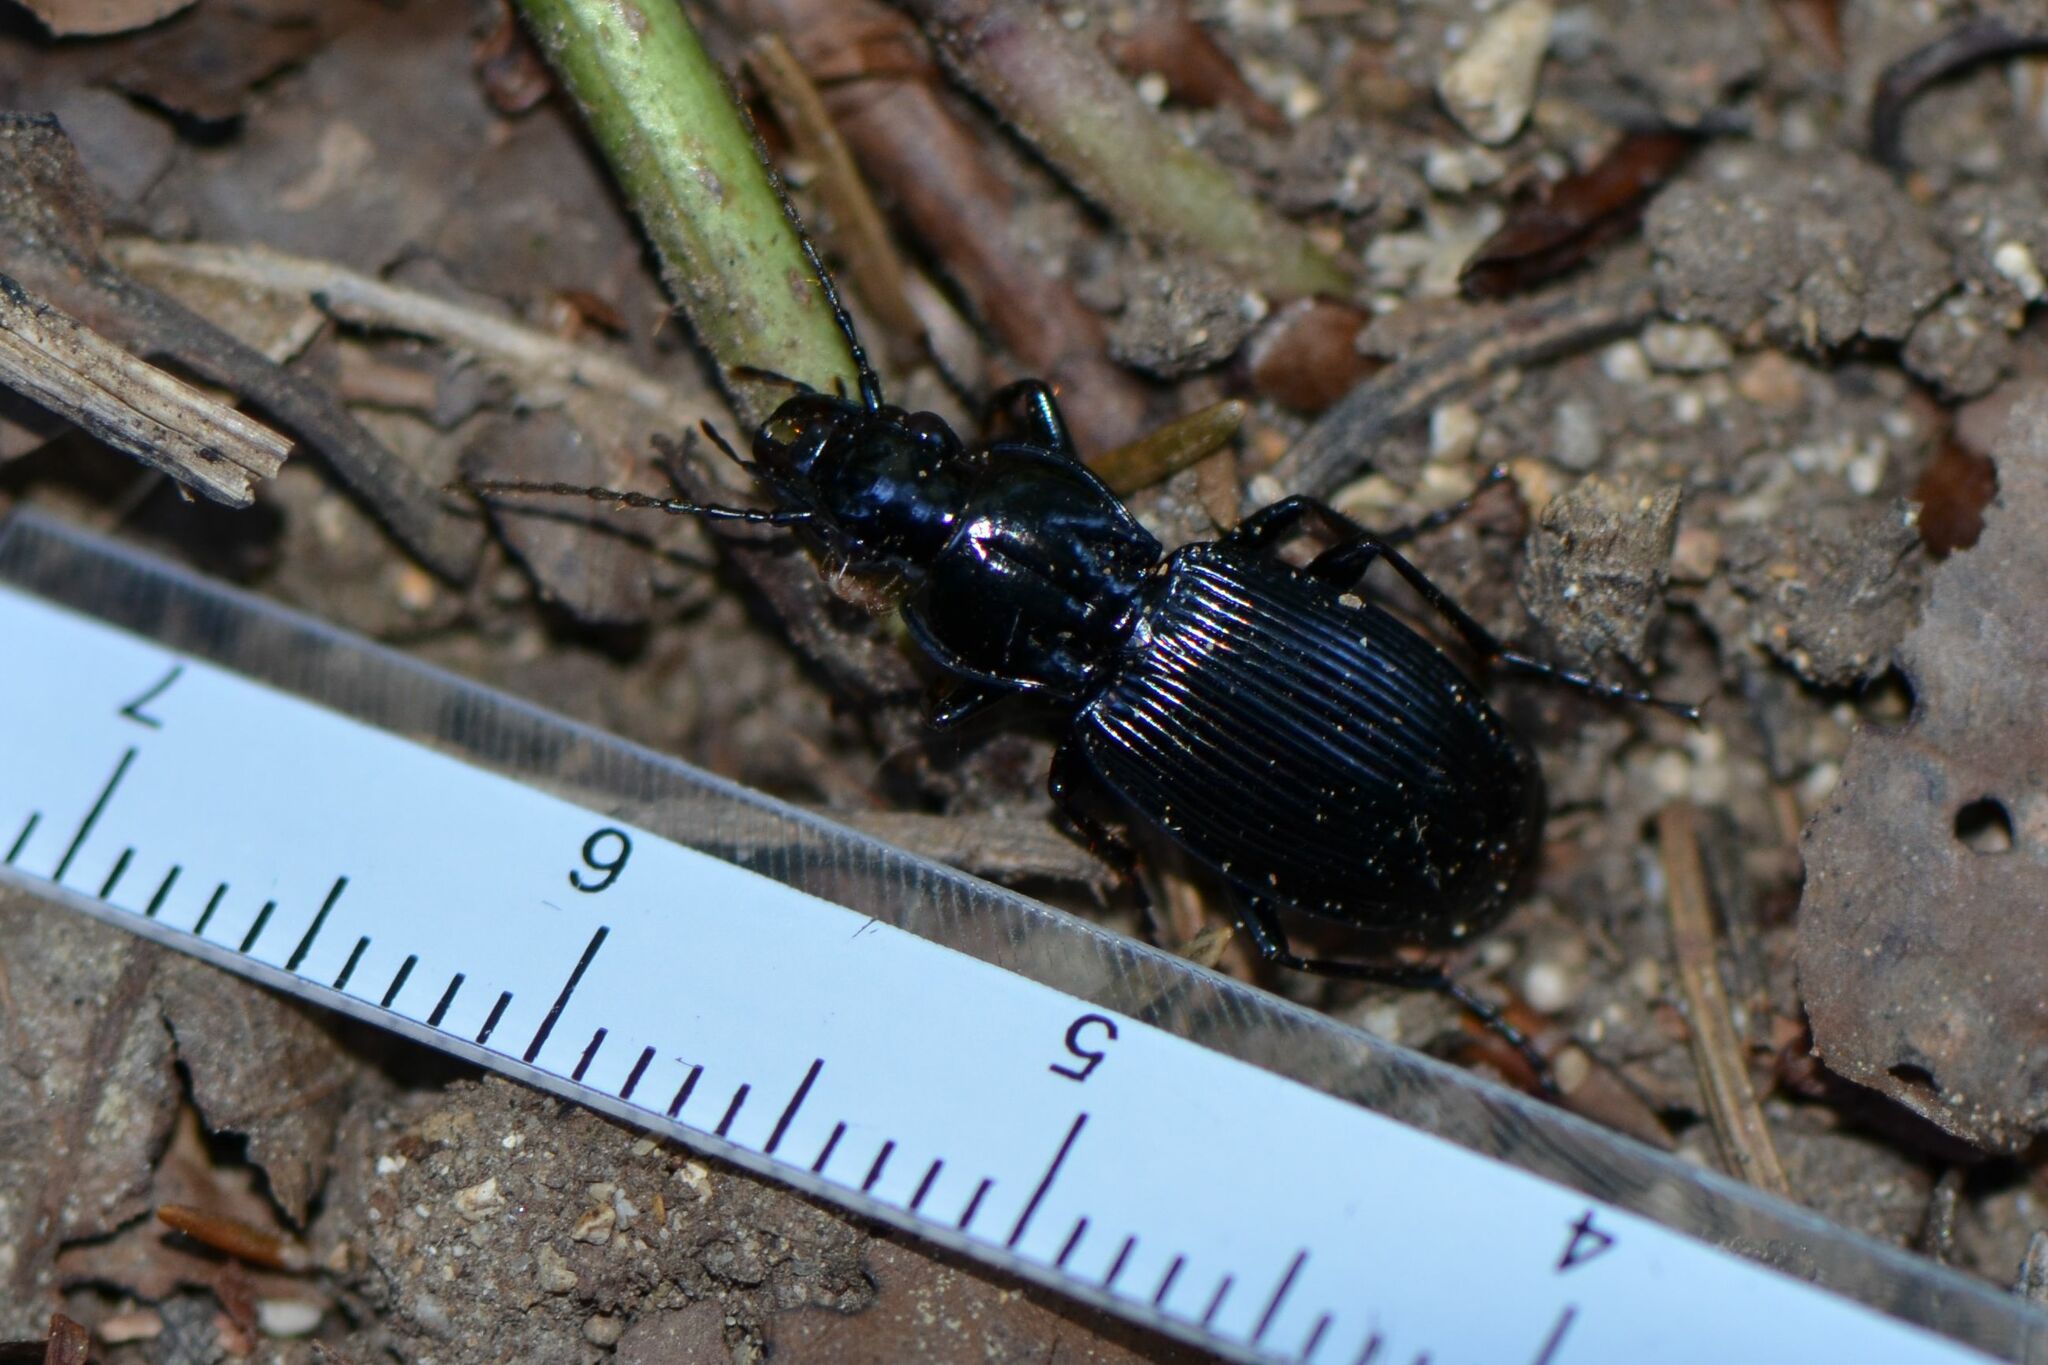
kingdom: Animalia
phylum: Arthropoda
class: Insecta
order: Coleoptera
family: Carabidae
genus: Pterostichus
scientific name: Pterostichus cristatus
